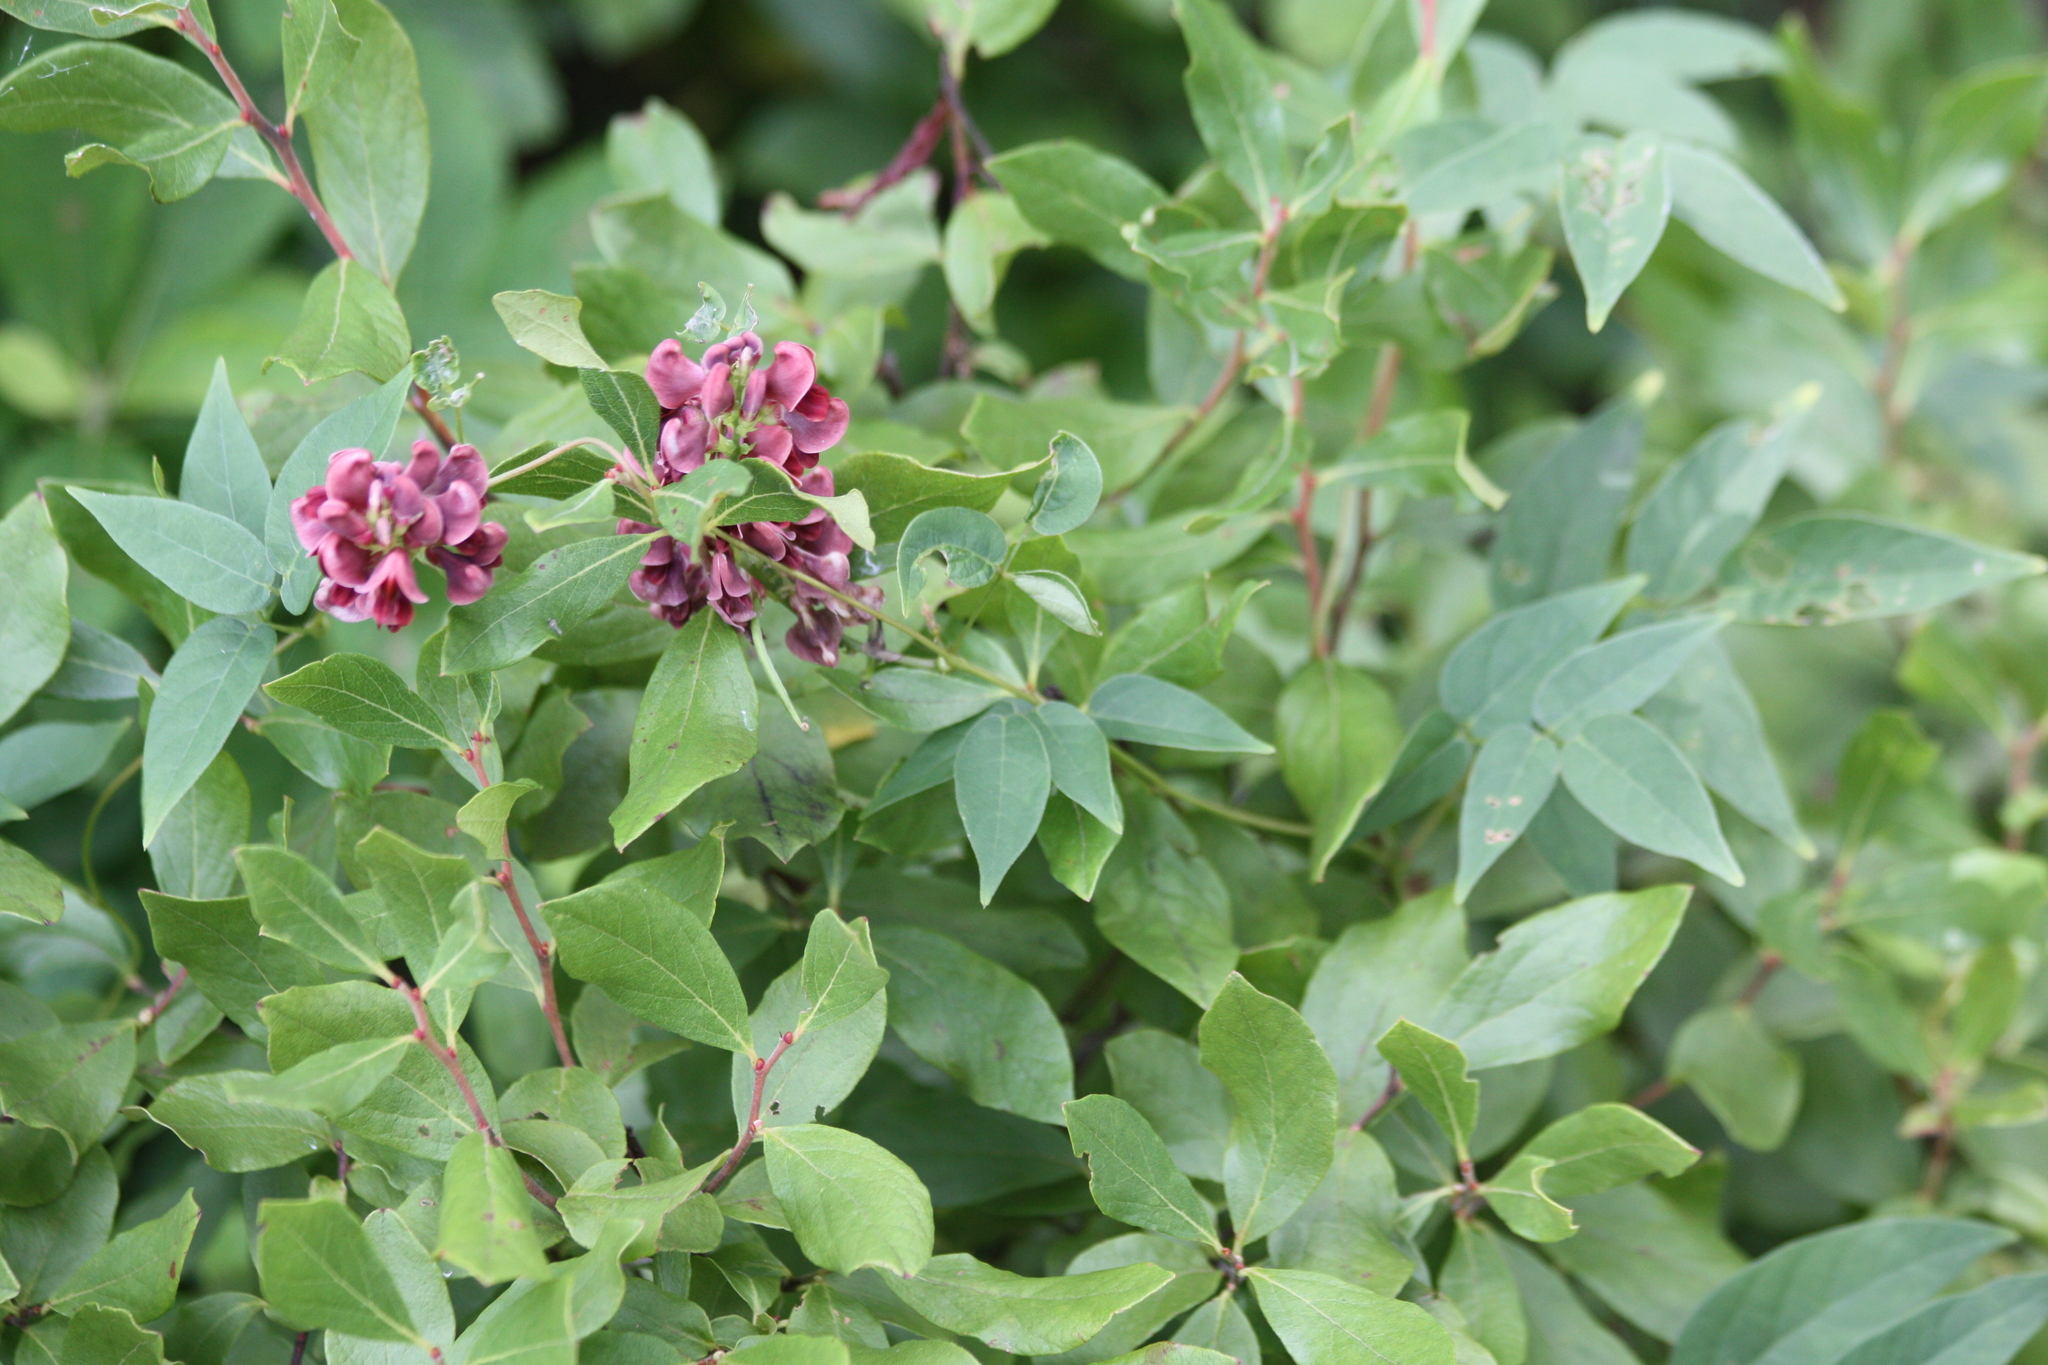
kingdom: Plantae
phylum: Tracheophyta
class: Magnoliopsida
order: Fabales
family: Fabaceae
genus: Apios
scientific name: Apios americana
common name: American potato-bean
